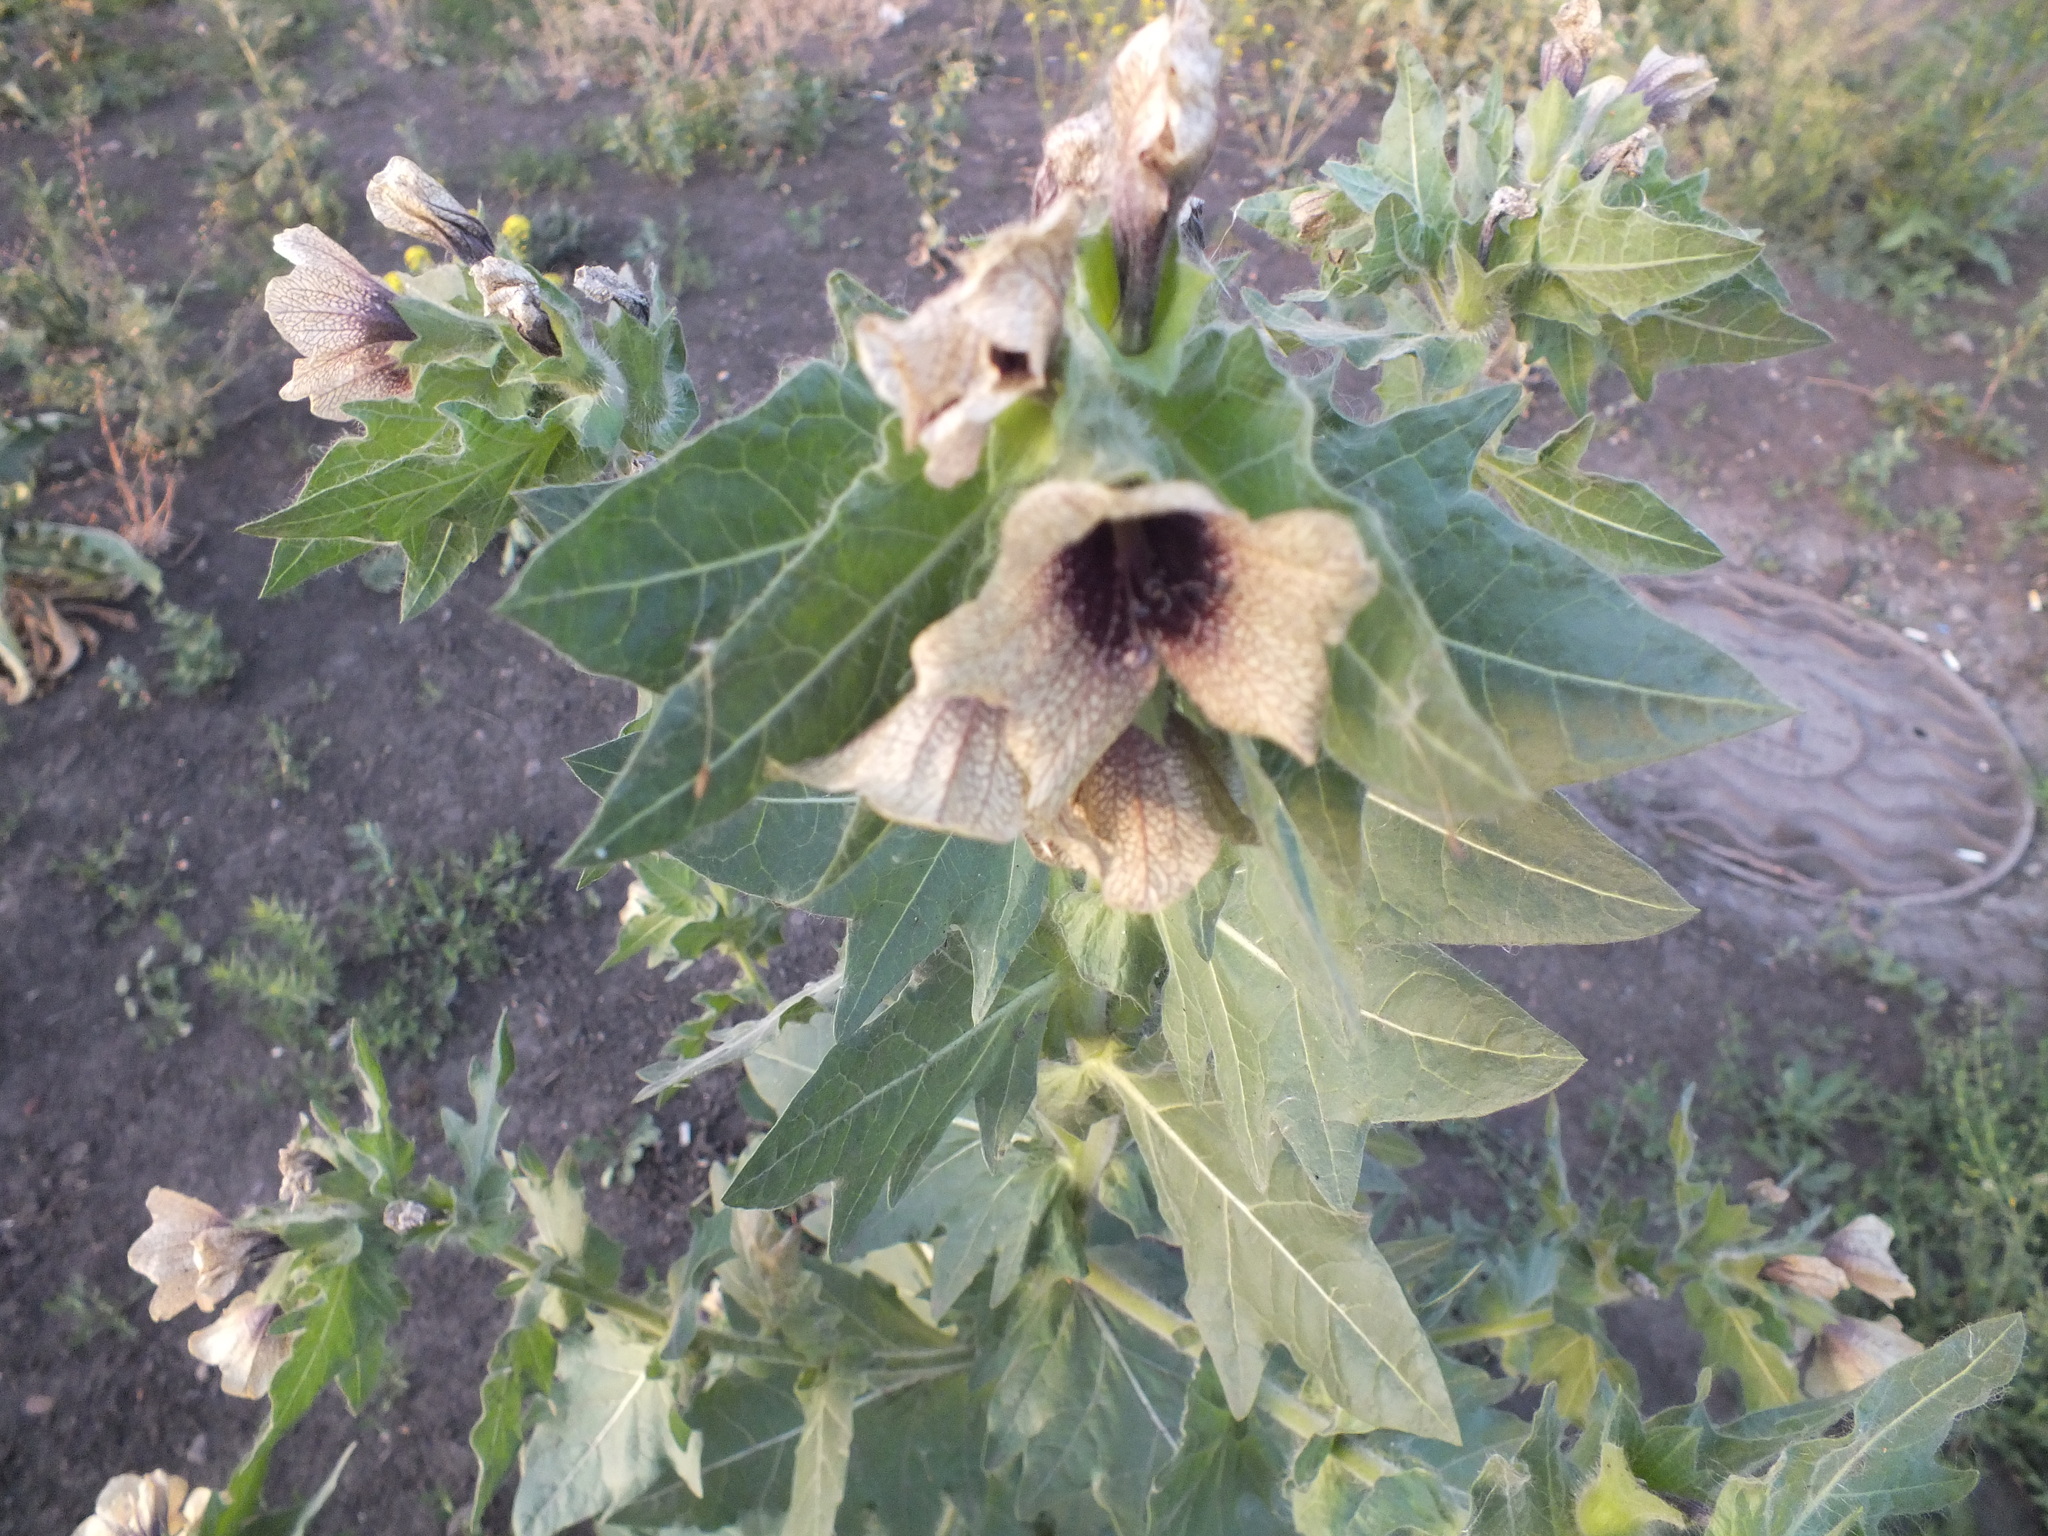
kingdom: Plantae
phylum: Tracheophyta
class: Magnoliopsida
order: Solanales
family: Solanaceae
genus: Hyoscyamus
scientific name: Hyoscyamus niger
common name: Henbane
